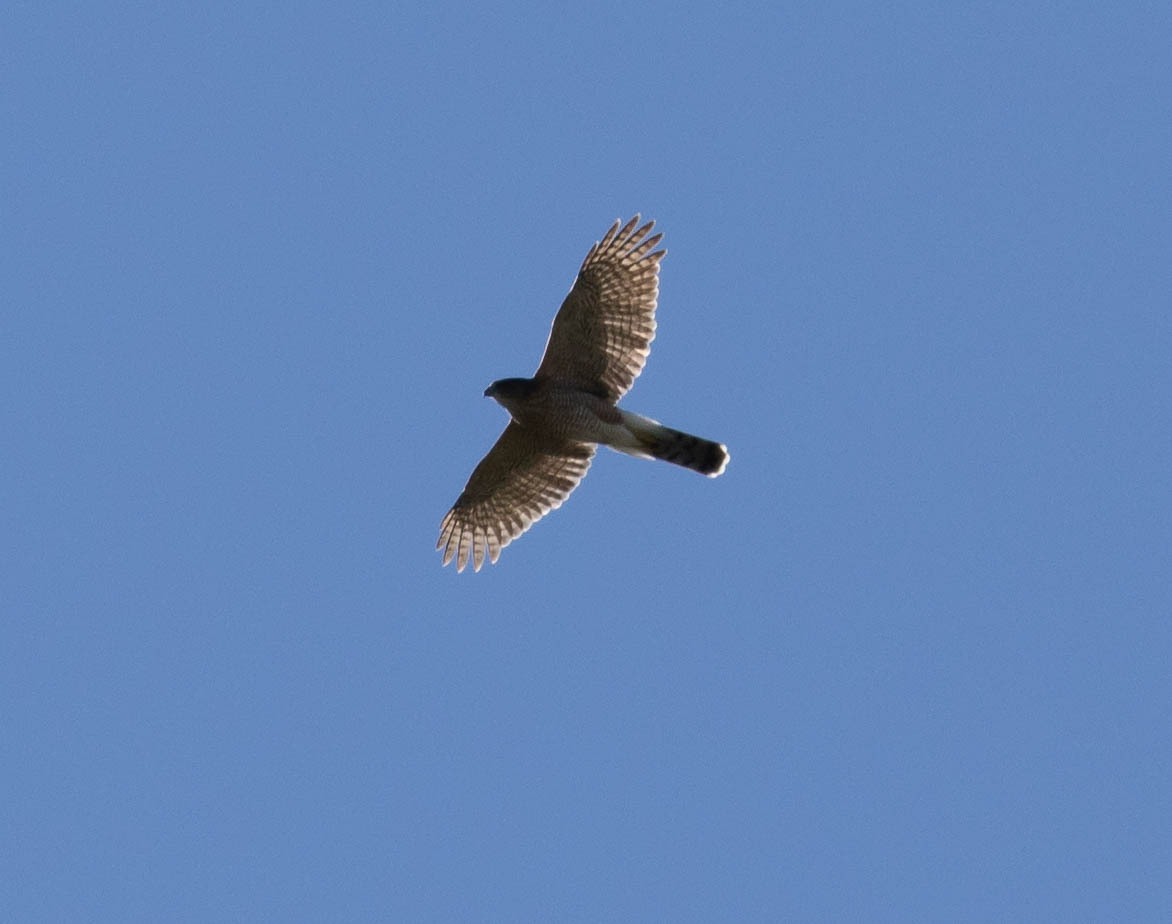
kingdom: Animalia
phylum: Chordata
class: Aves
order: Accipitriformes
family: Accipitridae
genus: Accipiter
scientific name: Accipiter cooperii
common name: Cooper's hawk
